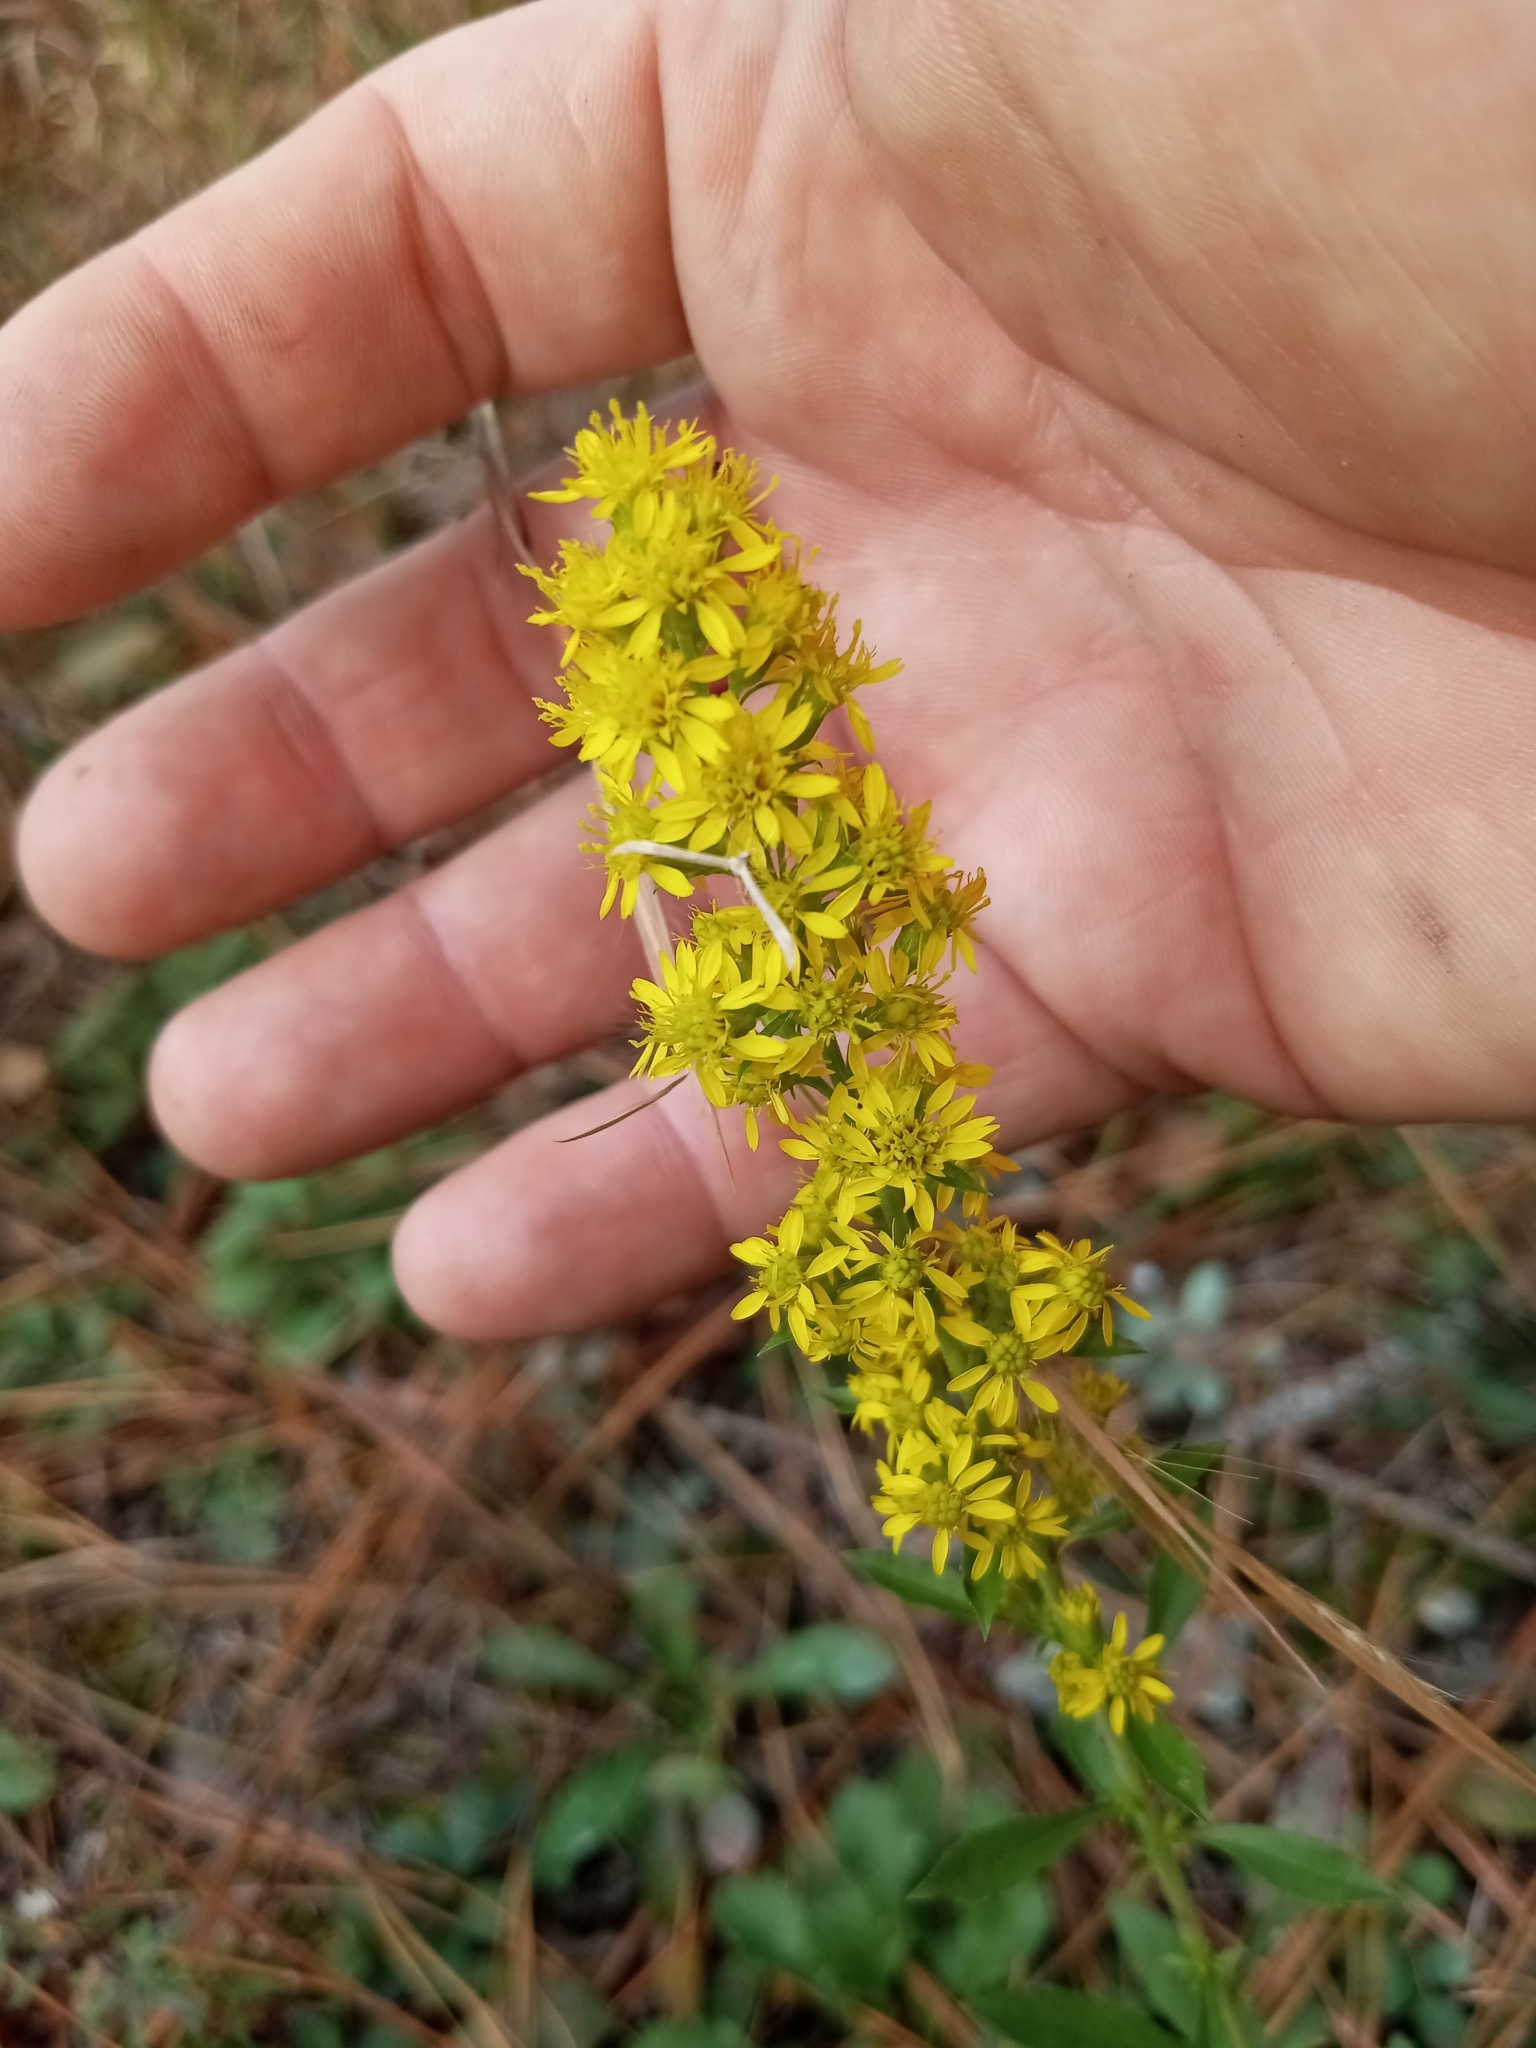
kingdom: Plantae
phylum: Tracheophyta
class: Magnoliopsida
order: Asterales
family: Asteraceae
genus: Solidago
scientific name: Solidago pulverulenta
